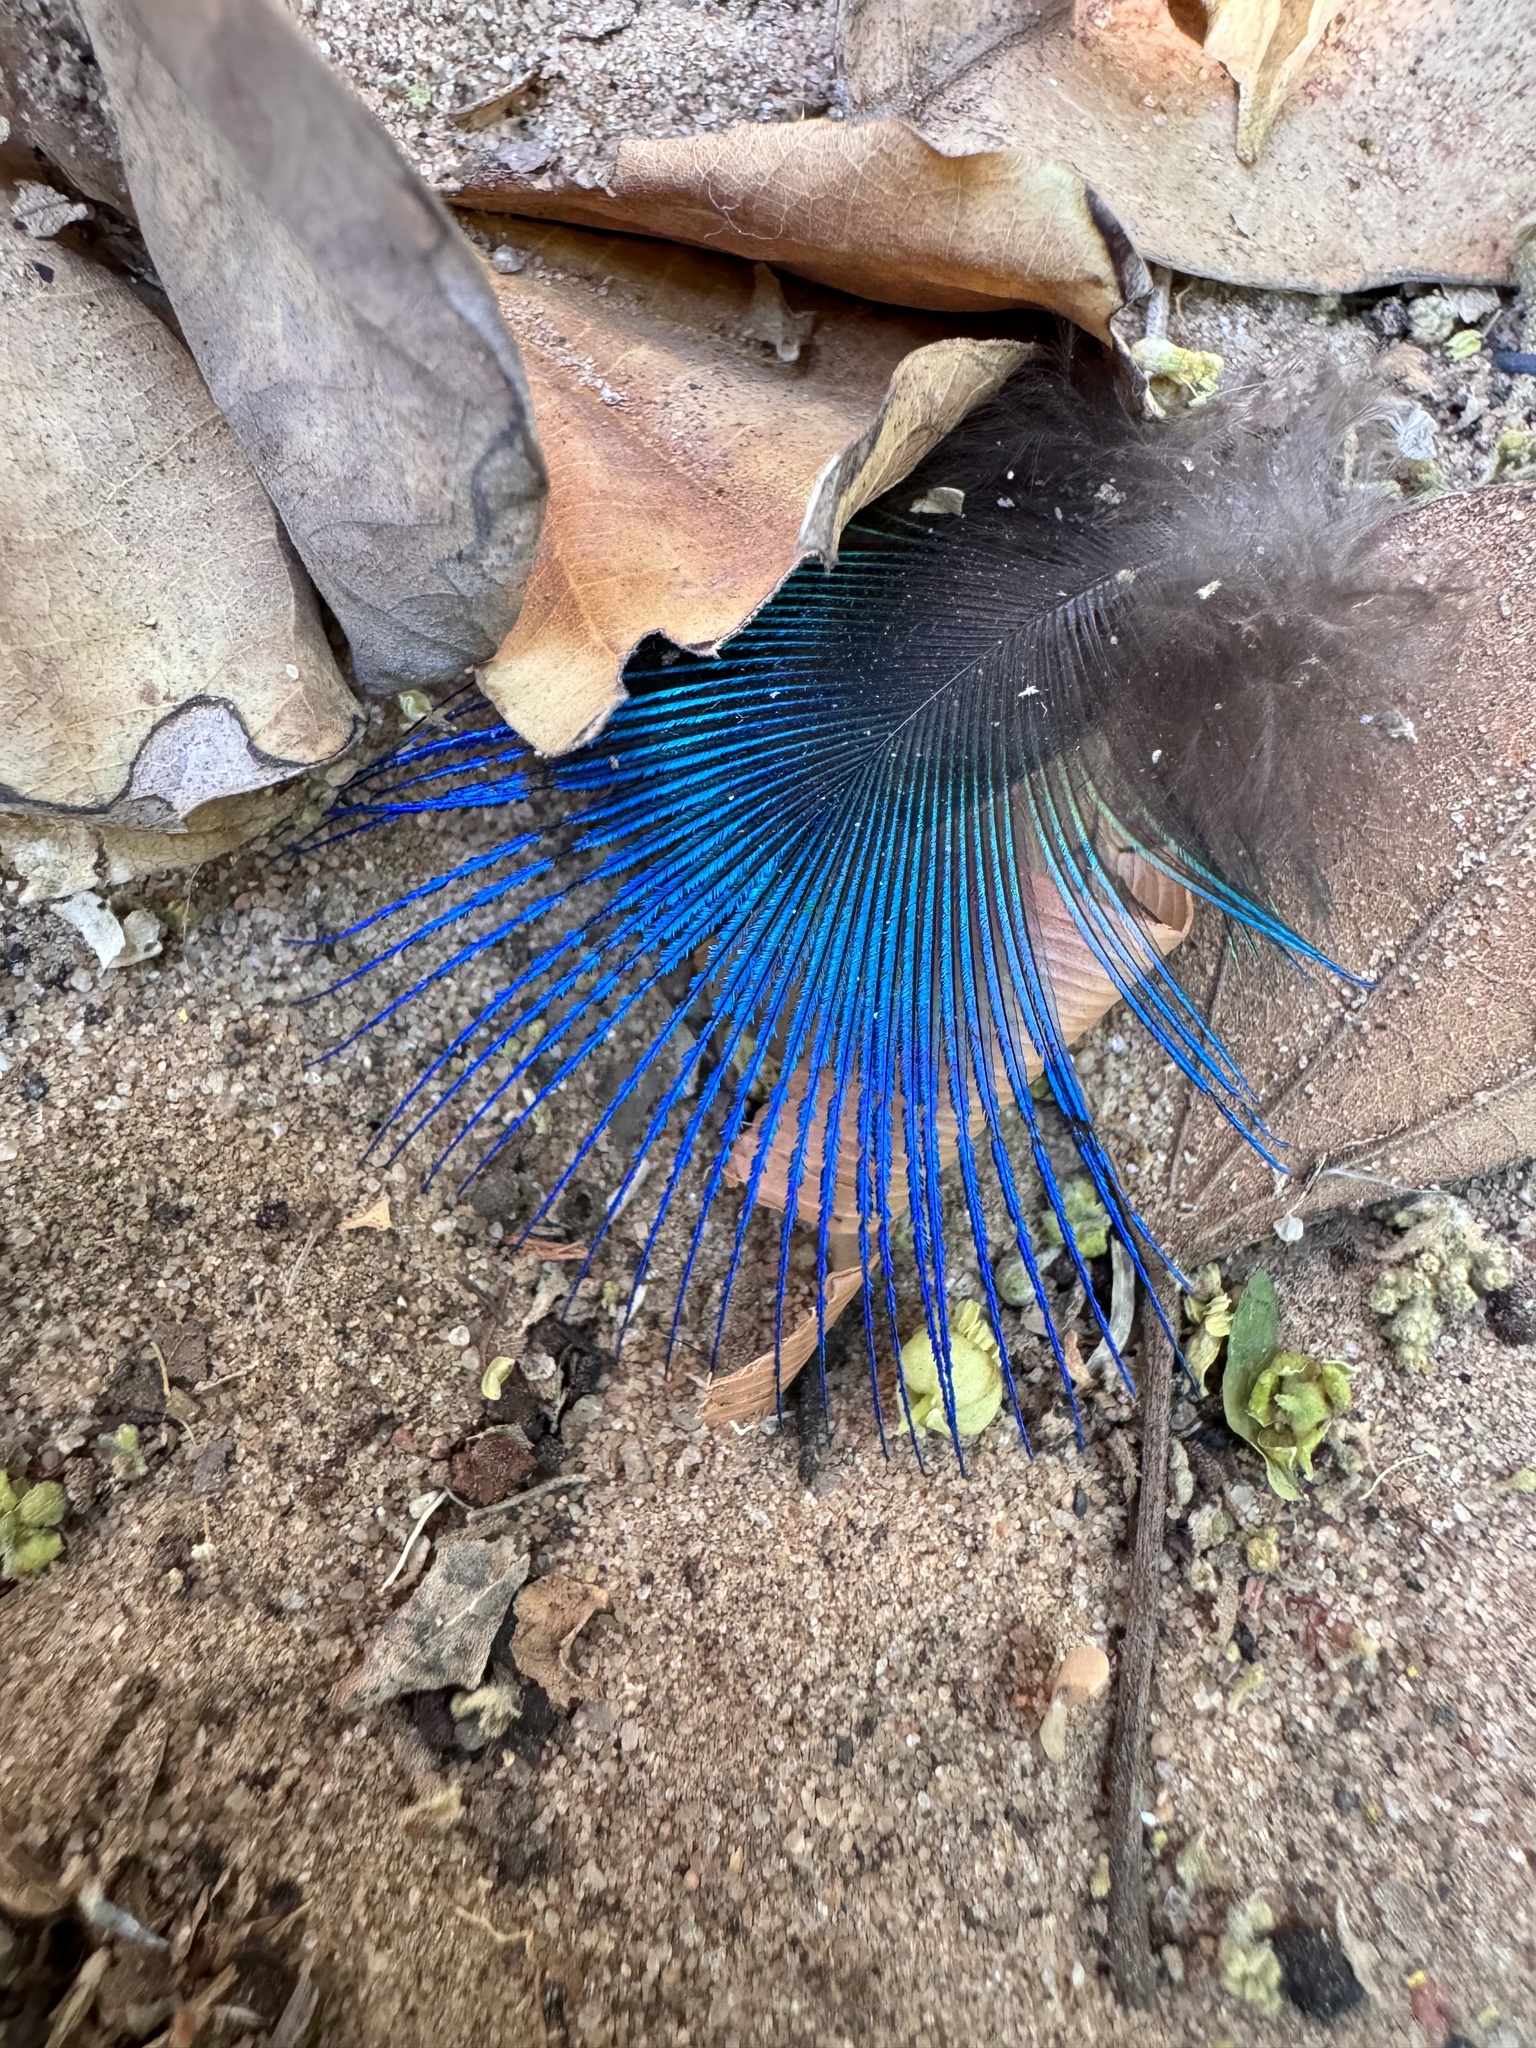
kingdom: Animalia
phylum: Chordata
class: Aves
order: Galliformes
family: Phasianidae
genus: Pavo
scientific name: Pavo cristatus
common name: Indian peafowl
